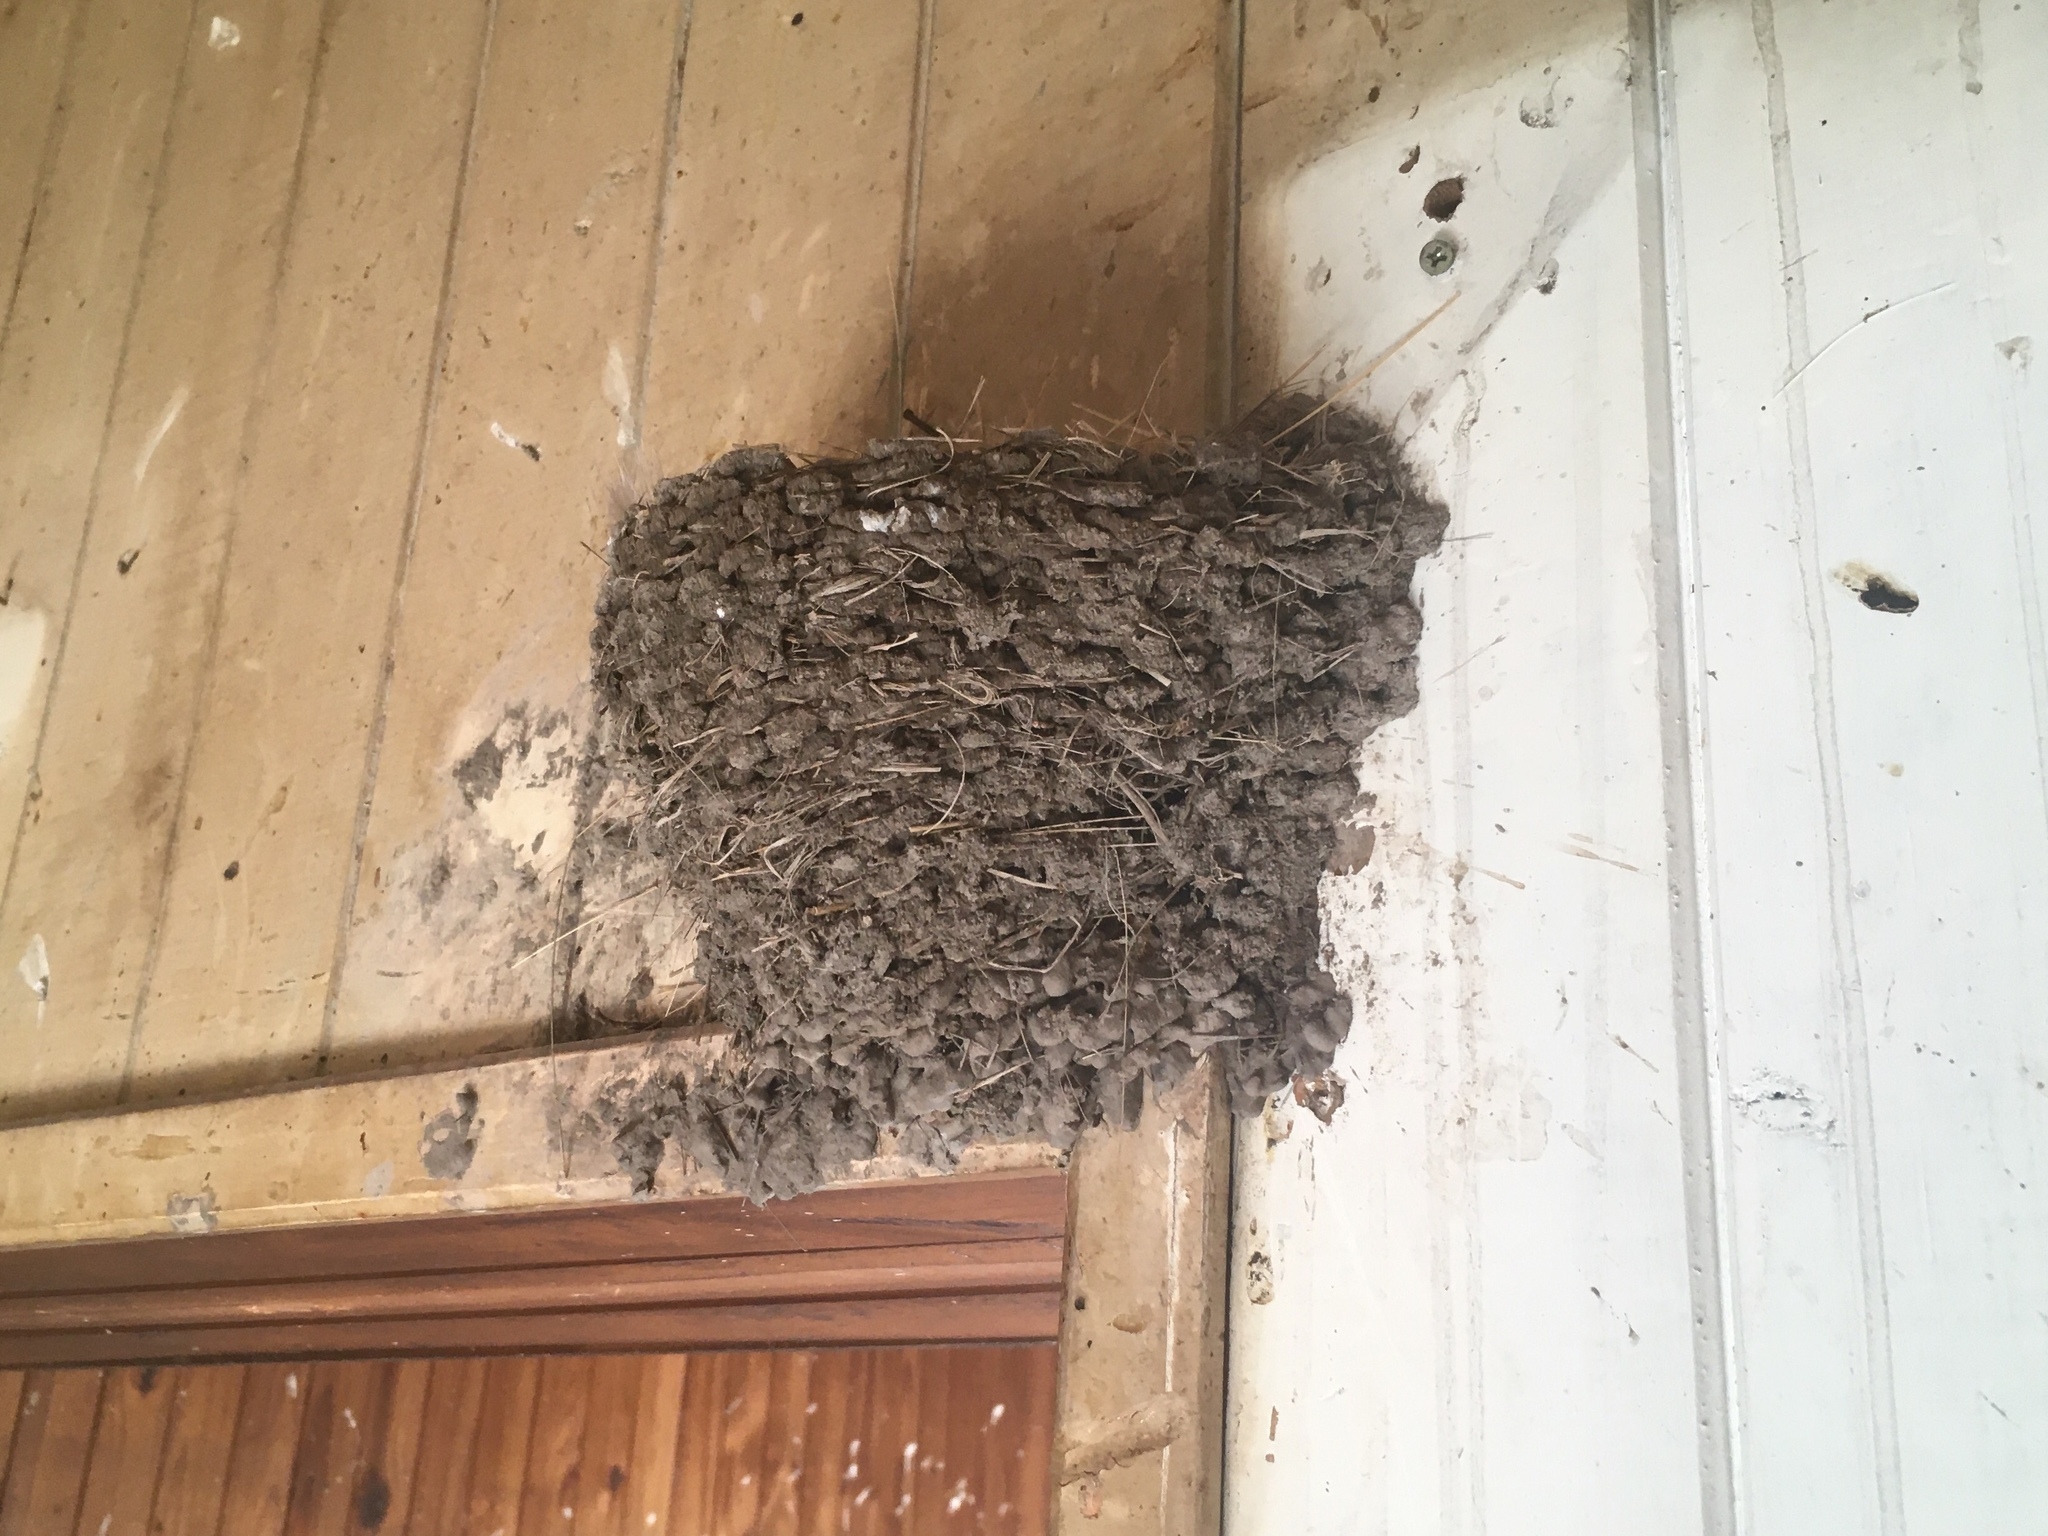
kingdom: Animalia
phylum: Chordata
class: Aves
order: Passeriformes
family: Hirundinidae
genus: Hirundo
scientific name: Hirundo rustica
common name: Barn swallow
